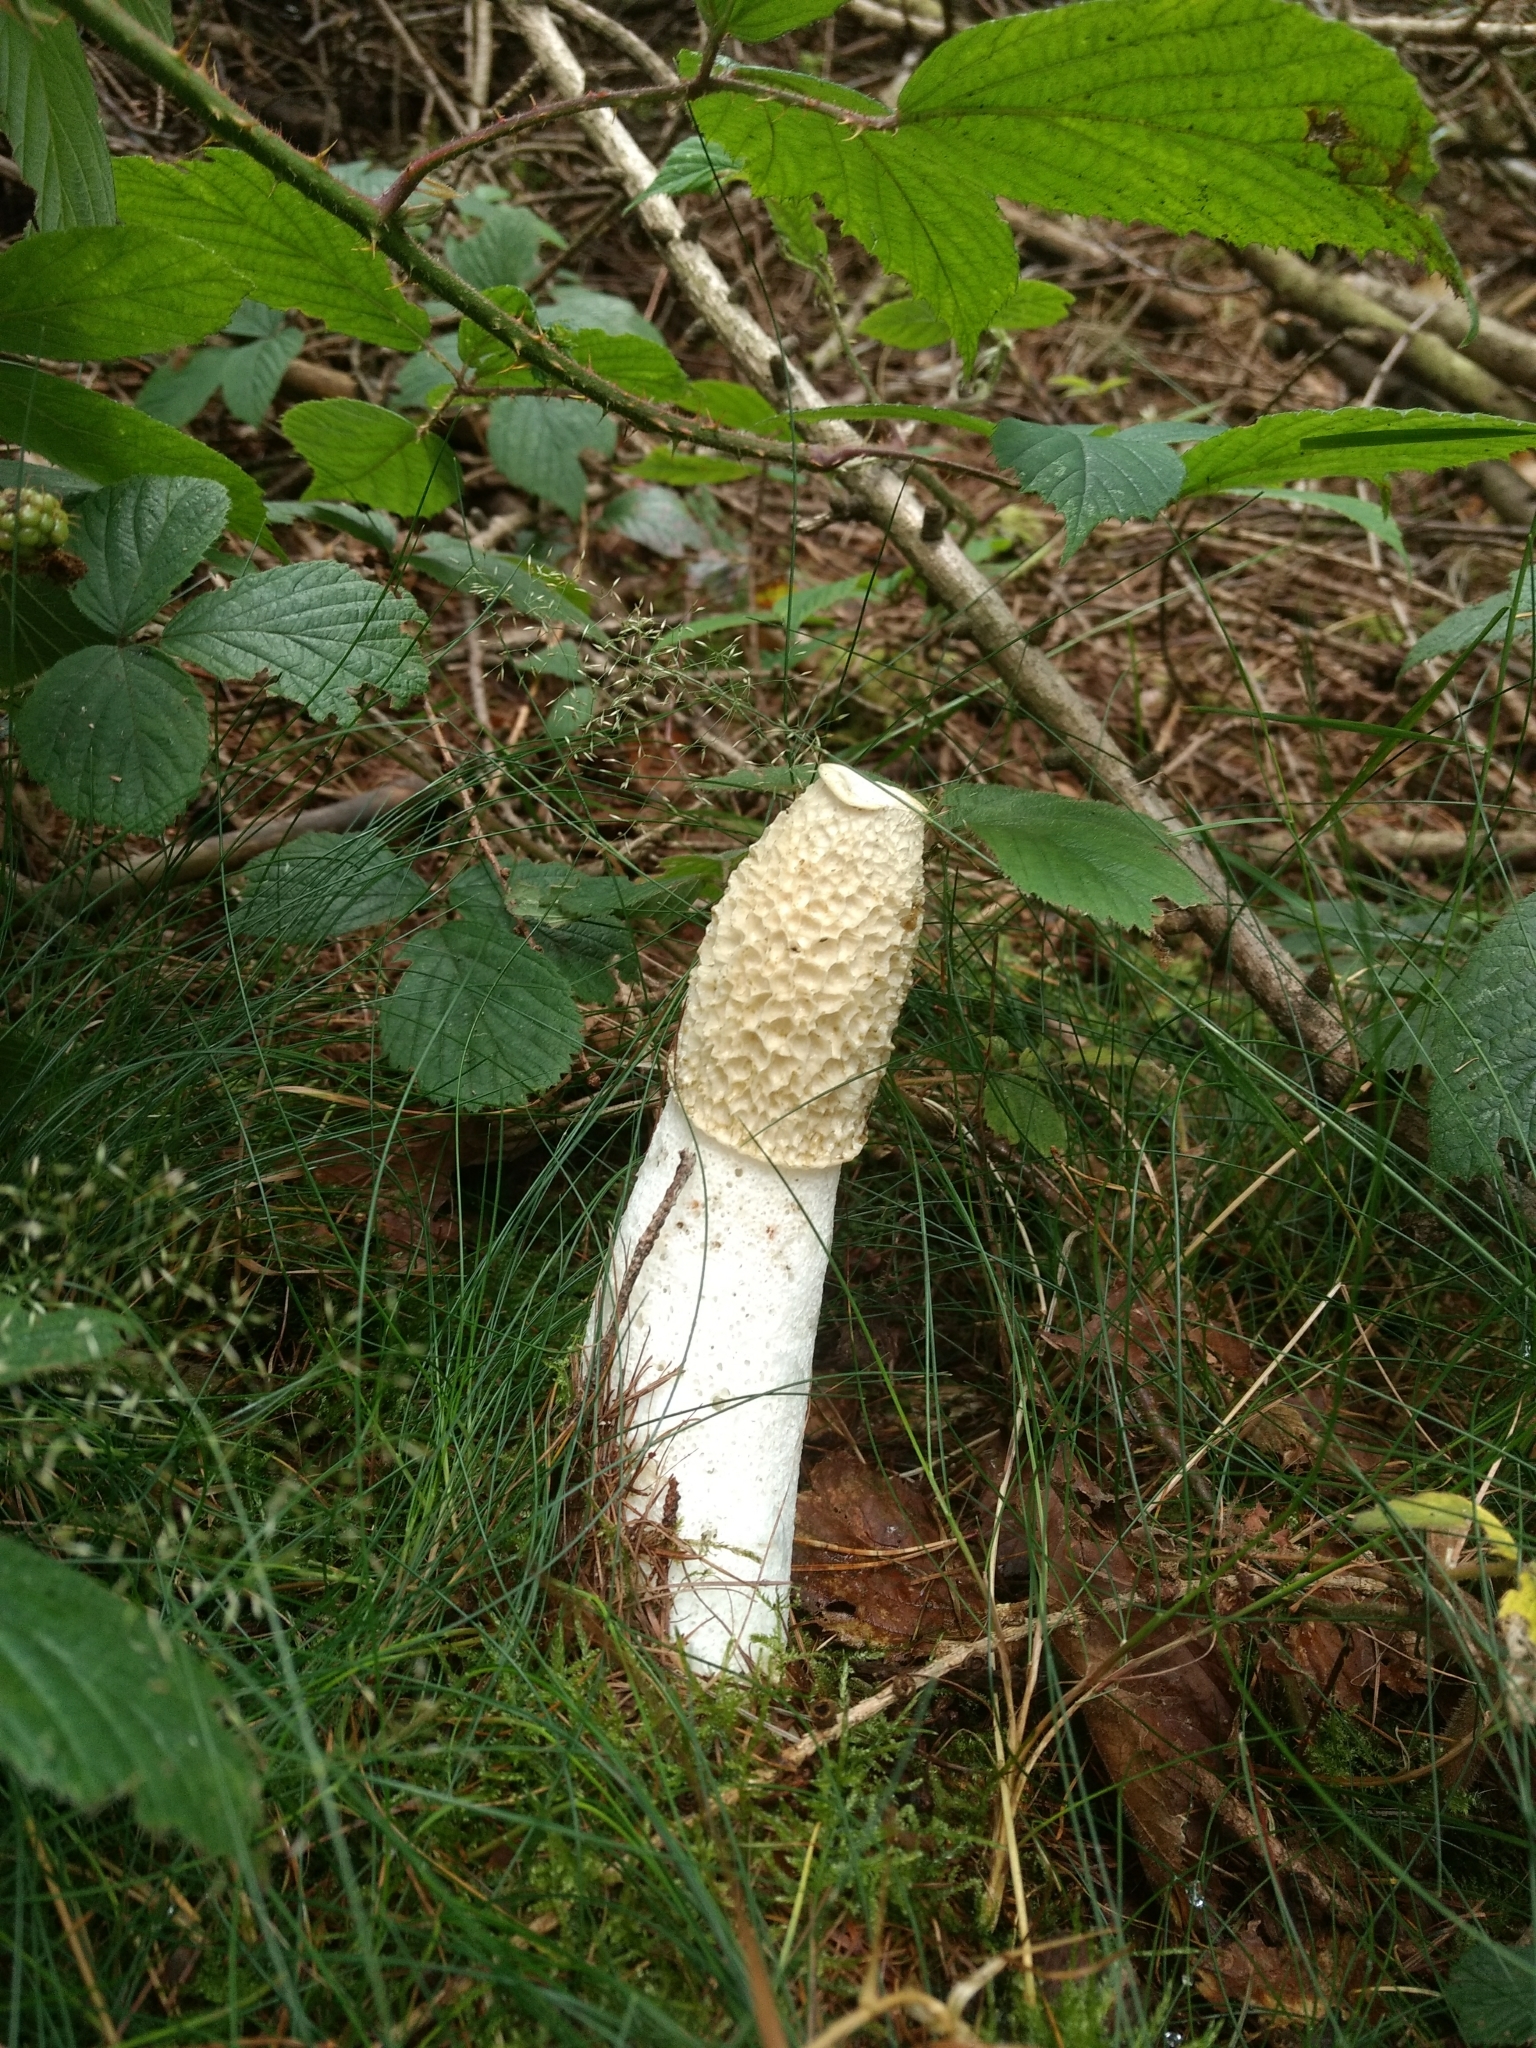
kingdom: Fungi
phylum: Basidiomycota
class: Agaricomycetes
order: Phallales
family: Phallaceae
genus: Phallus
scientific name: Phallus impudicus
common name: Common stinkhorn
